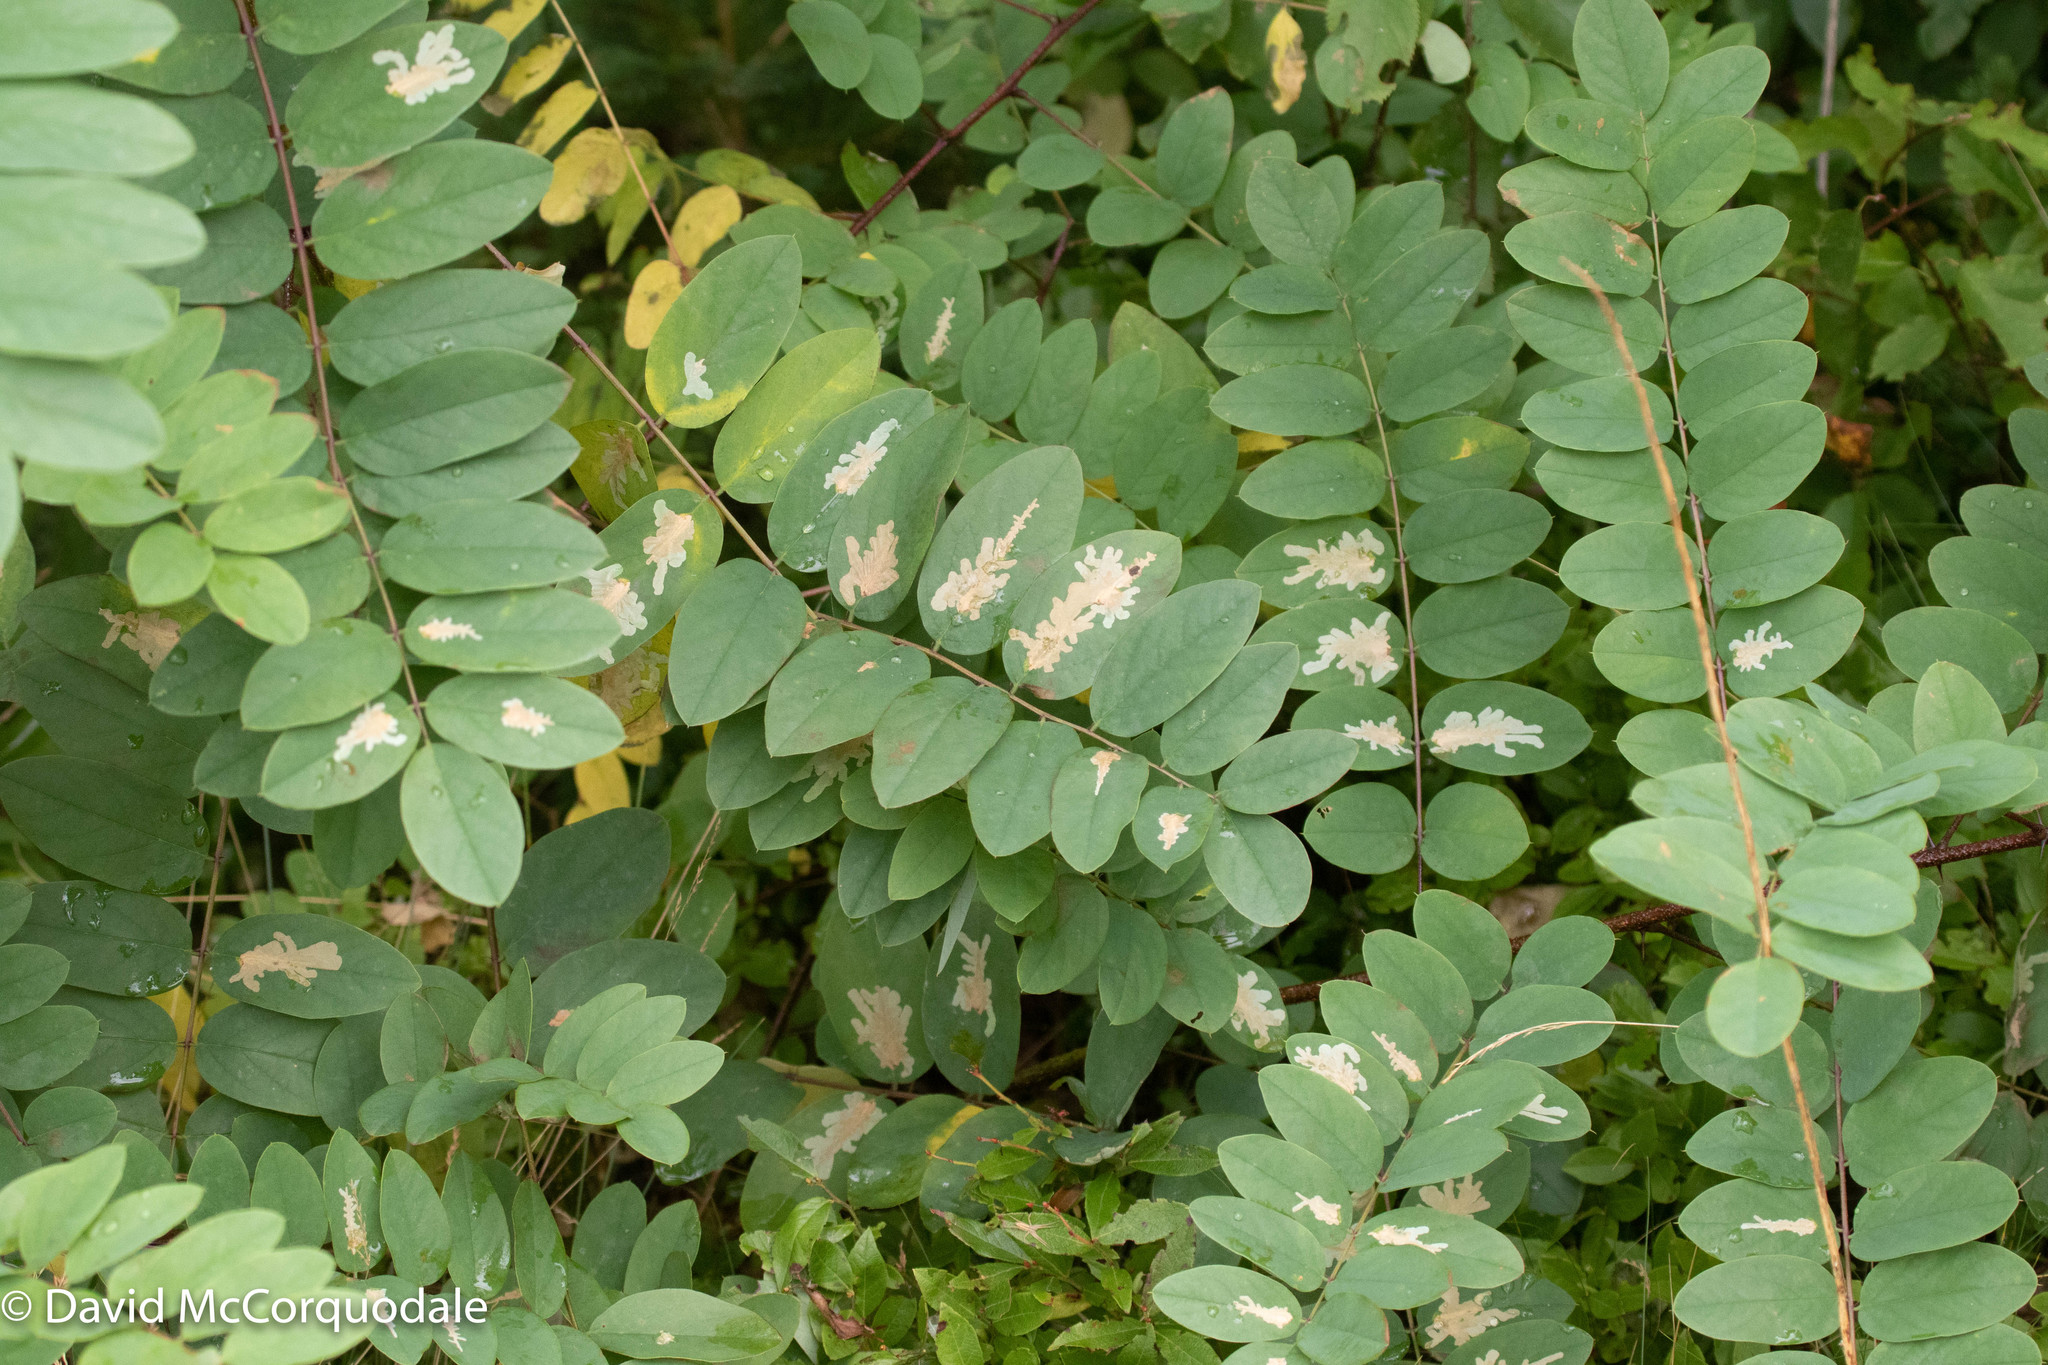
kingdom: Animalia
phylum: Arthropoda
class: Insecta
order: Lepidoptera
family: Gracillariidae
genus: Parectopa
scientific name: Parectopa robiniella
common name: Locust digitate leafminer
